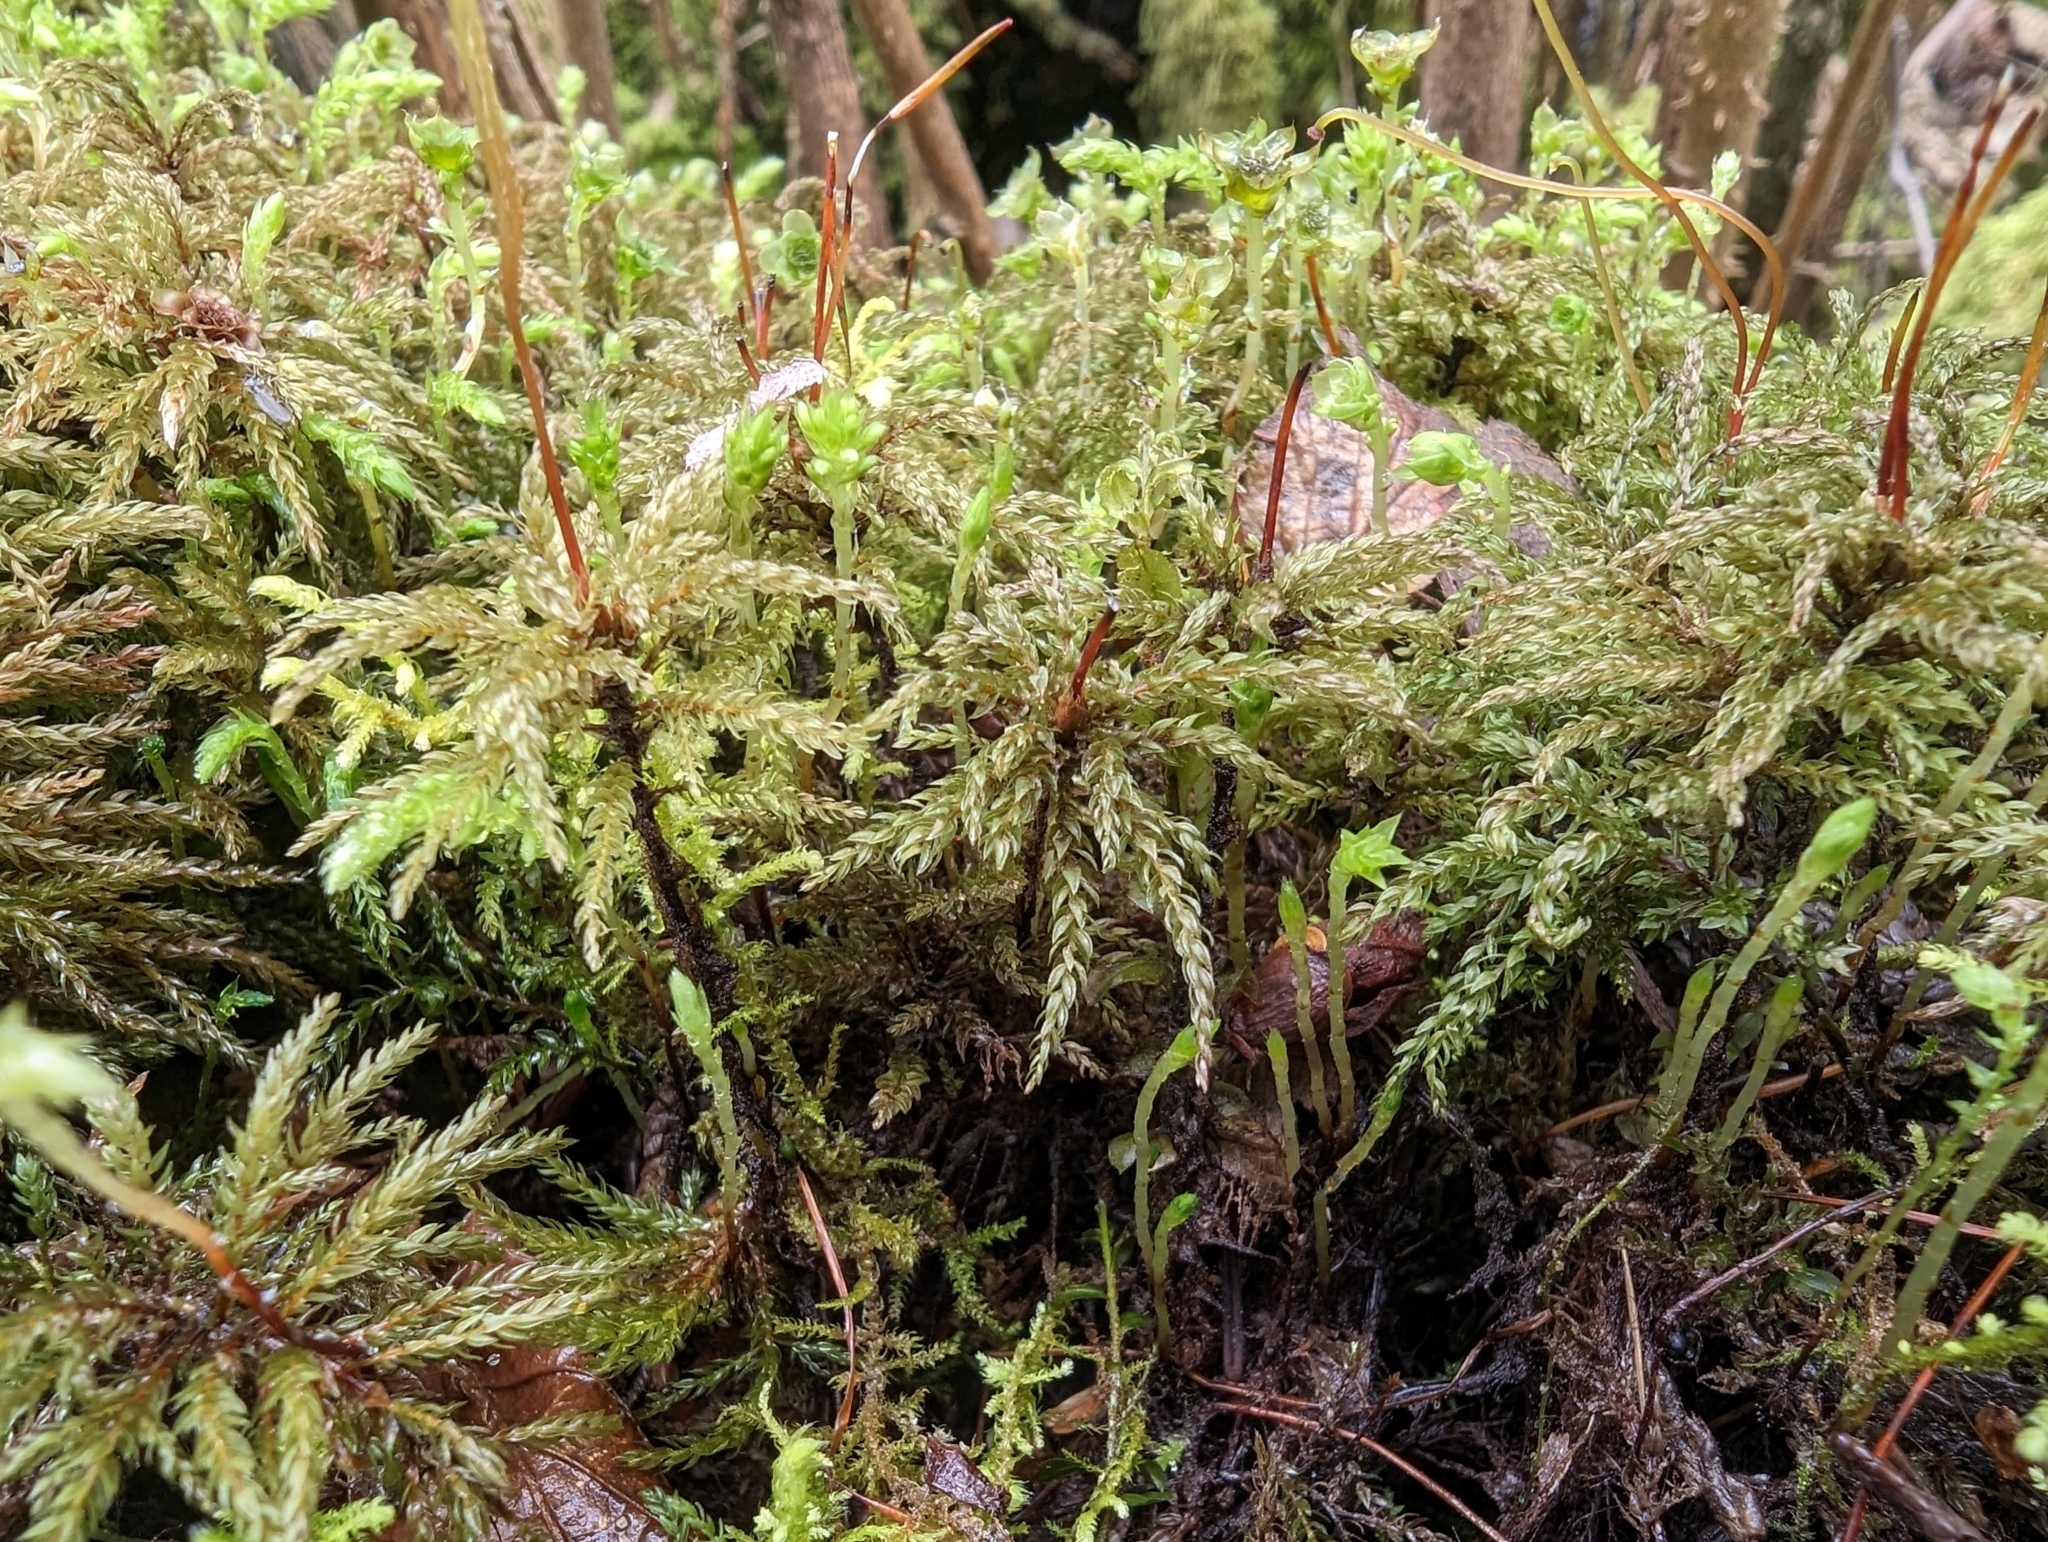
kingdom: Plantae
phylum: Bryophyta
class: Bryopsida
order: Bryales
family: Mniaceae
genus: Leucolepis
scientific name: Leucolepis acanthoneura
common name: Leucolepis umbrella moss
